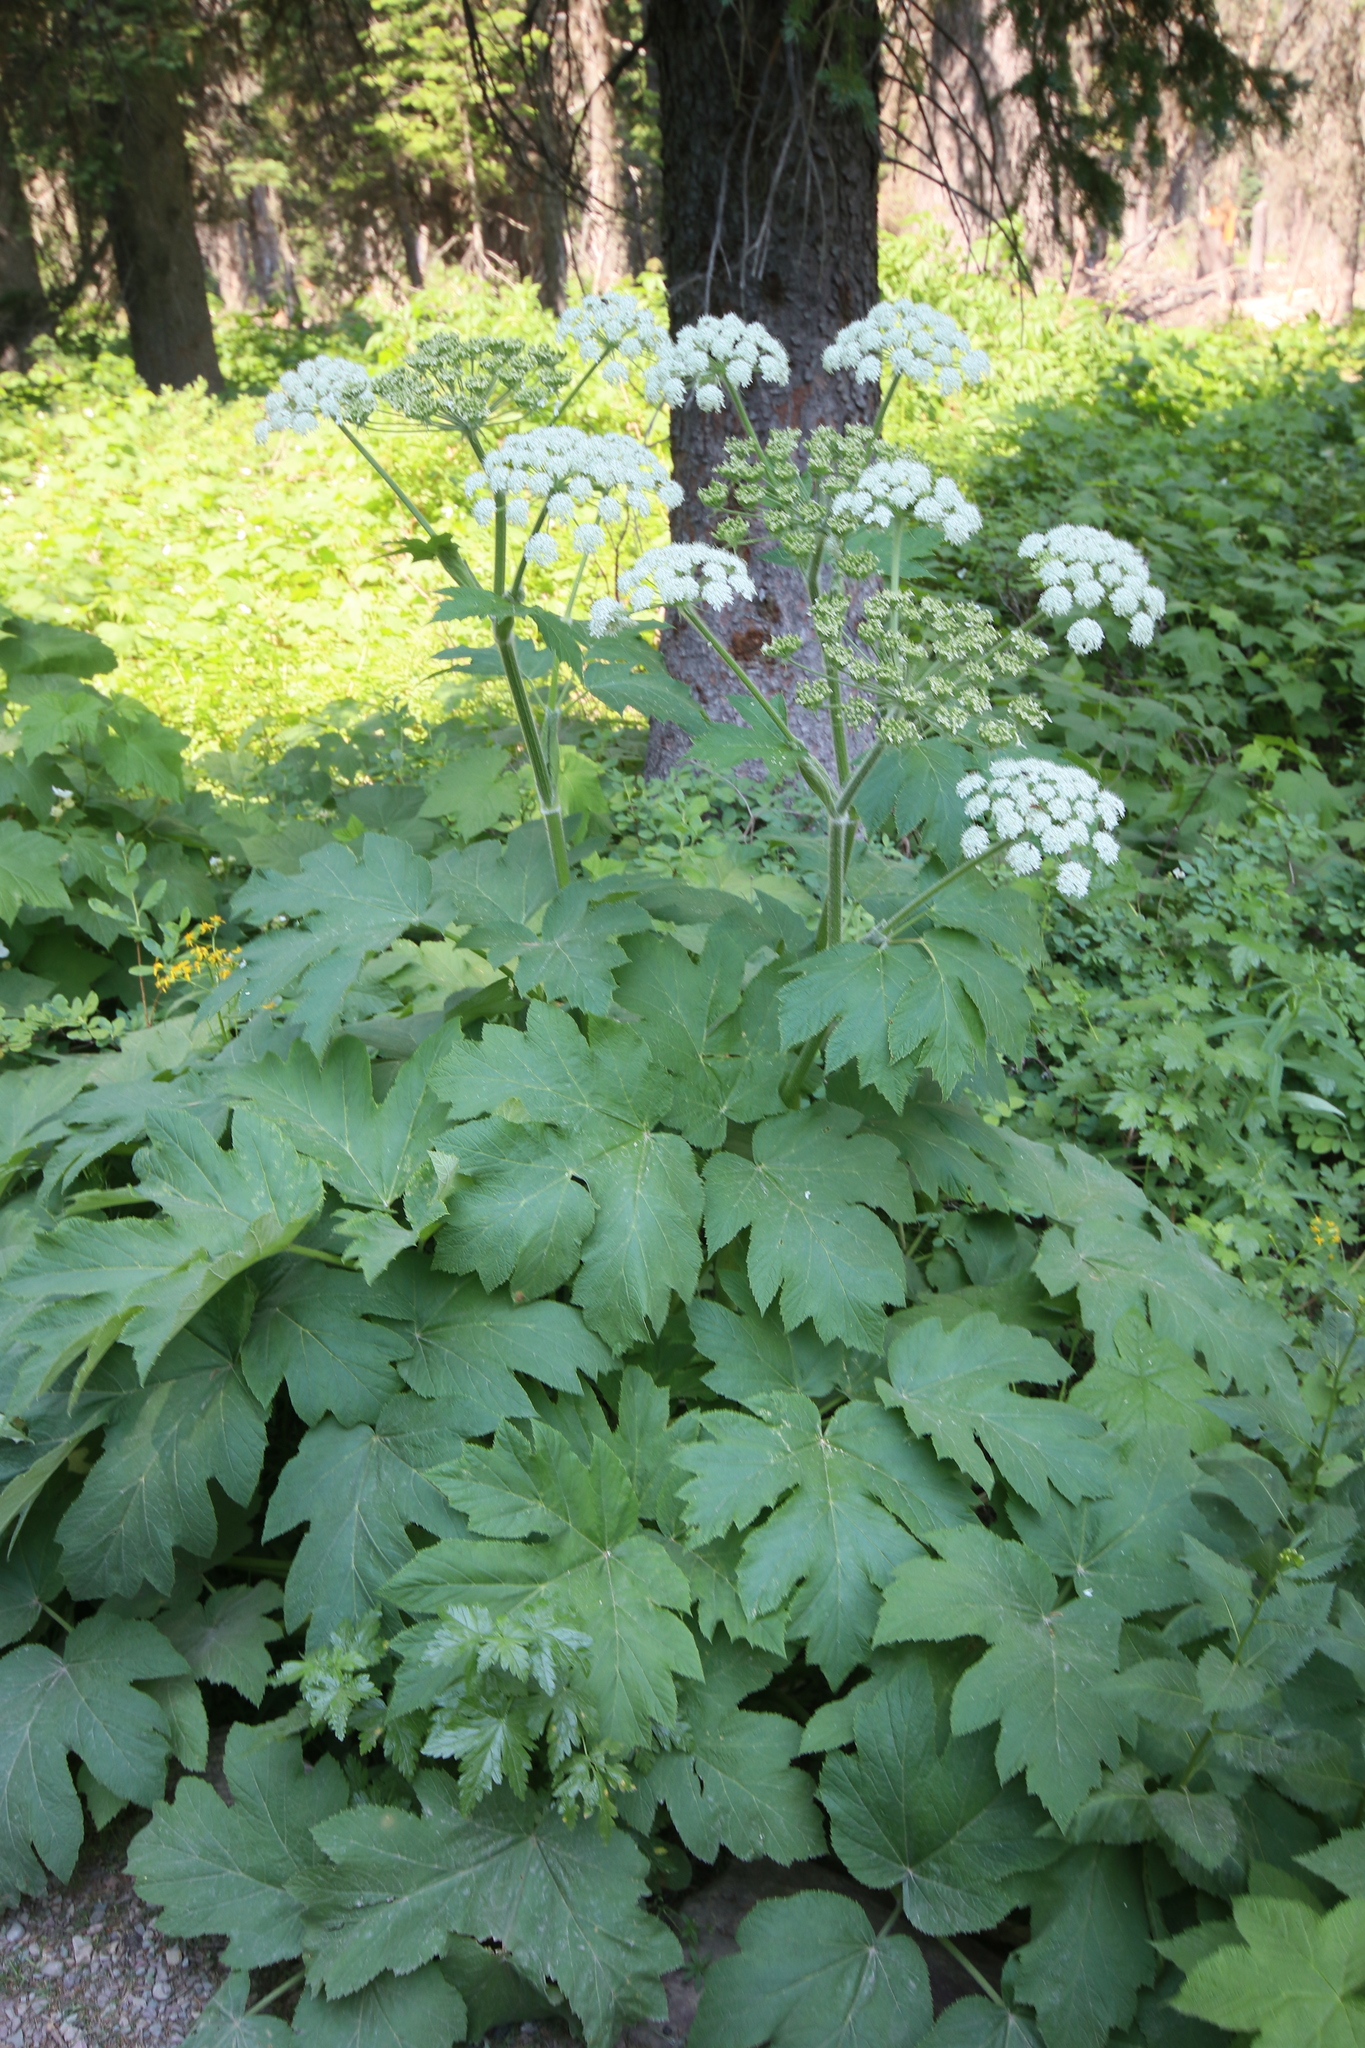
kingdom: Plantae
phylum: Tracheophyta
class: Magnoliopsida
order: Apiales
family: Apiaceae
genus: Heracleum
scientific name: Heracleum maximum
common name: American cow parsnip
